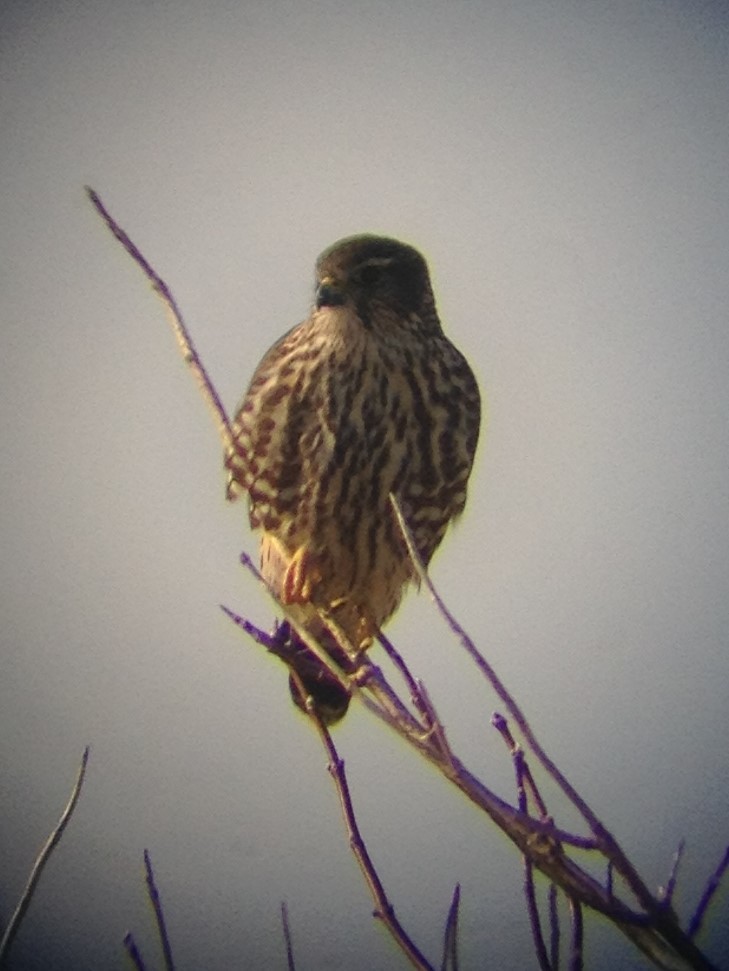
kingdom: Animalia
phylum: Chordata
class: Aves
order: Falconiformes
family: Falconidae
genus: Falco
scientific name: Falco columbarius
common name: Merlin
